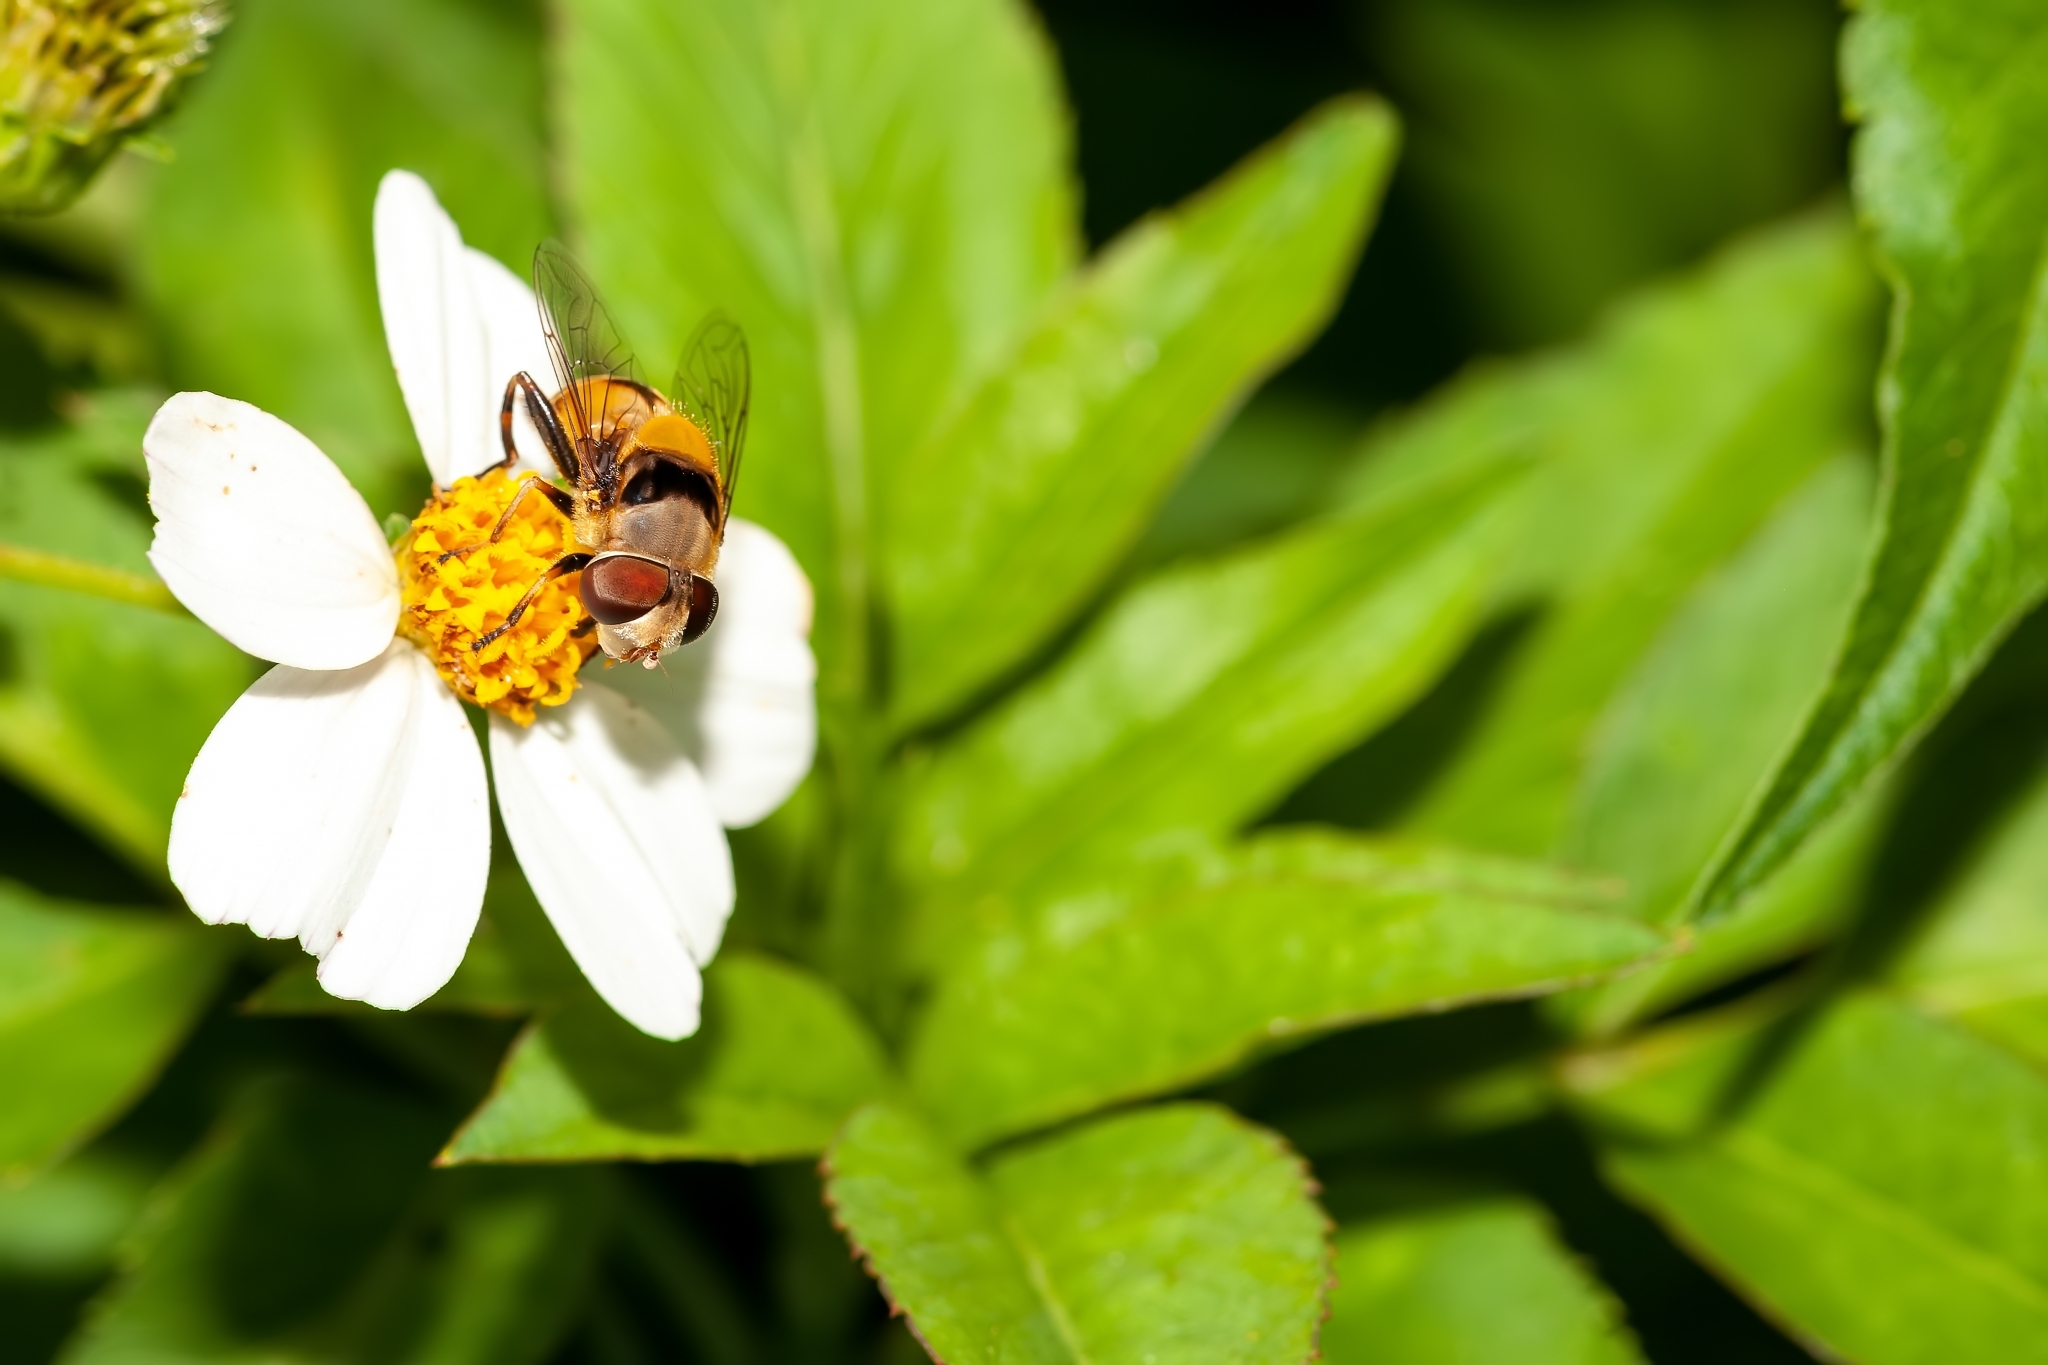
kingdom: Animalia
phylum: Arthropoda
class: Insecta
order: Diptera
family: Syrphidae
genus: Palpada
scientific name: Palpada pusilla
